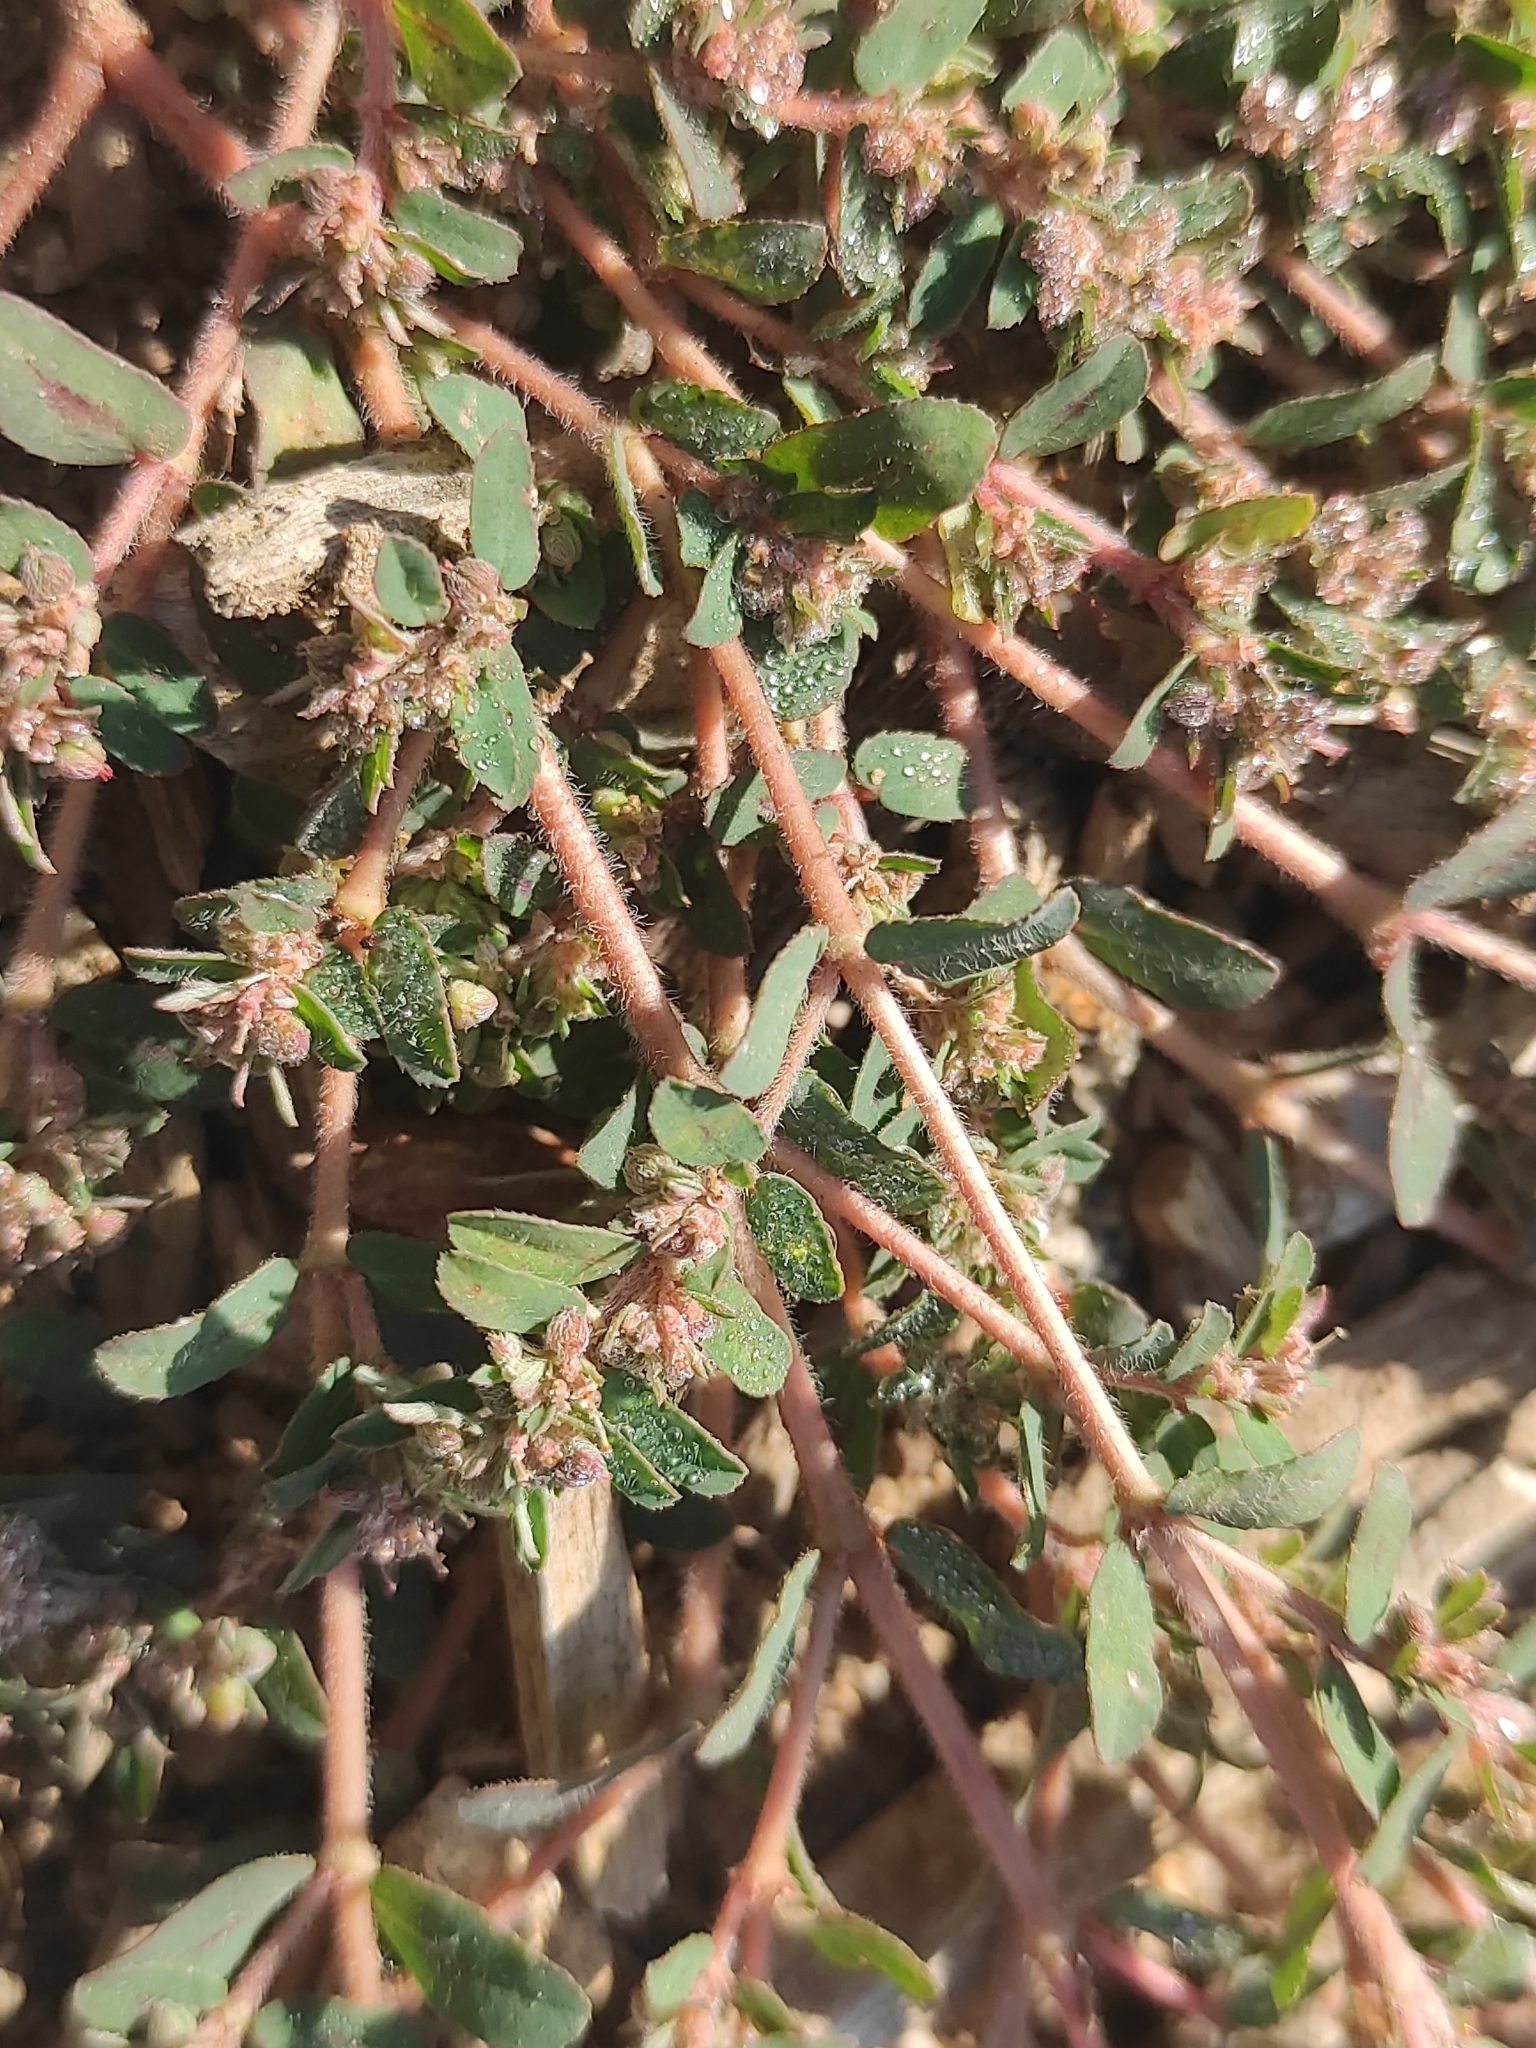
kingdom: Plantae
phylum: Tracheophyta
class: Magnoliopsida
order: Malpighiales
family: Euphorbiaceae
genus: Euphorbia
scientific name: Euphorbia maculata
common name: Spotted spurge
